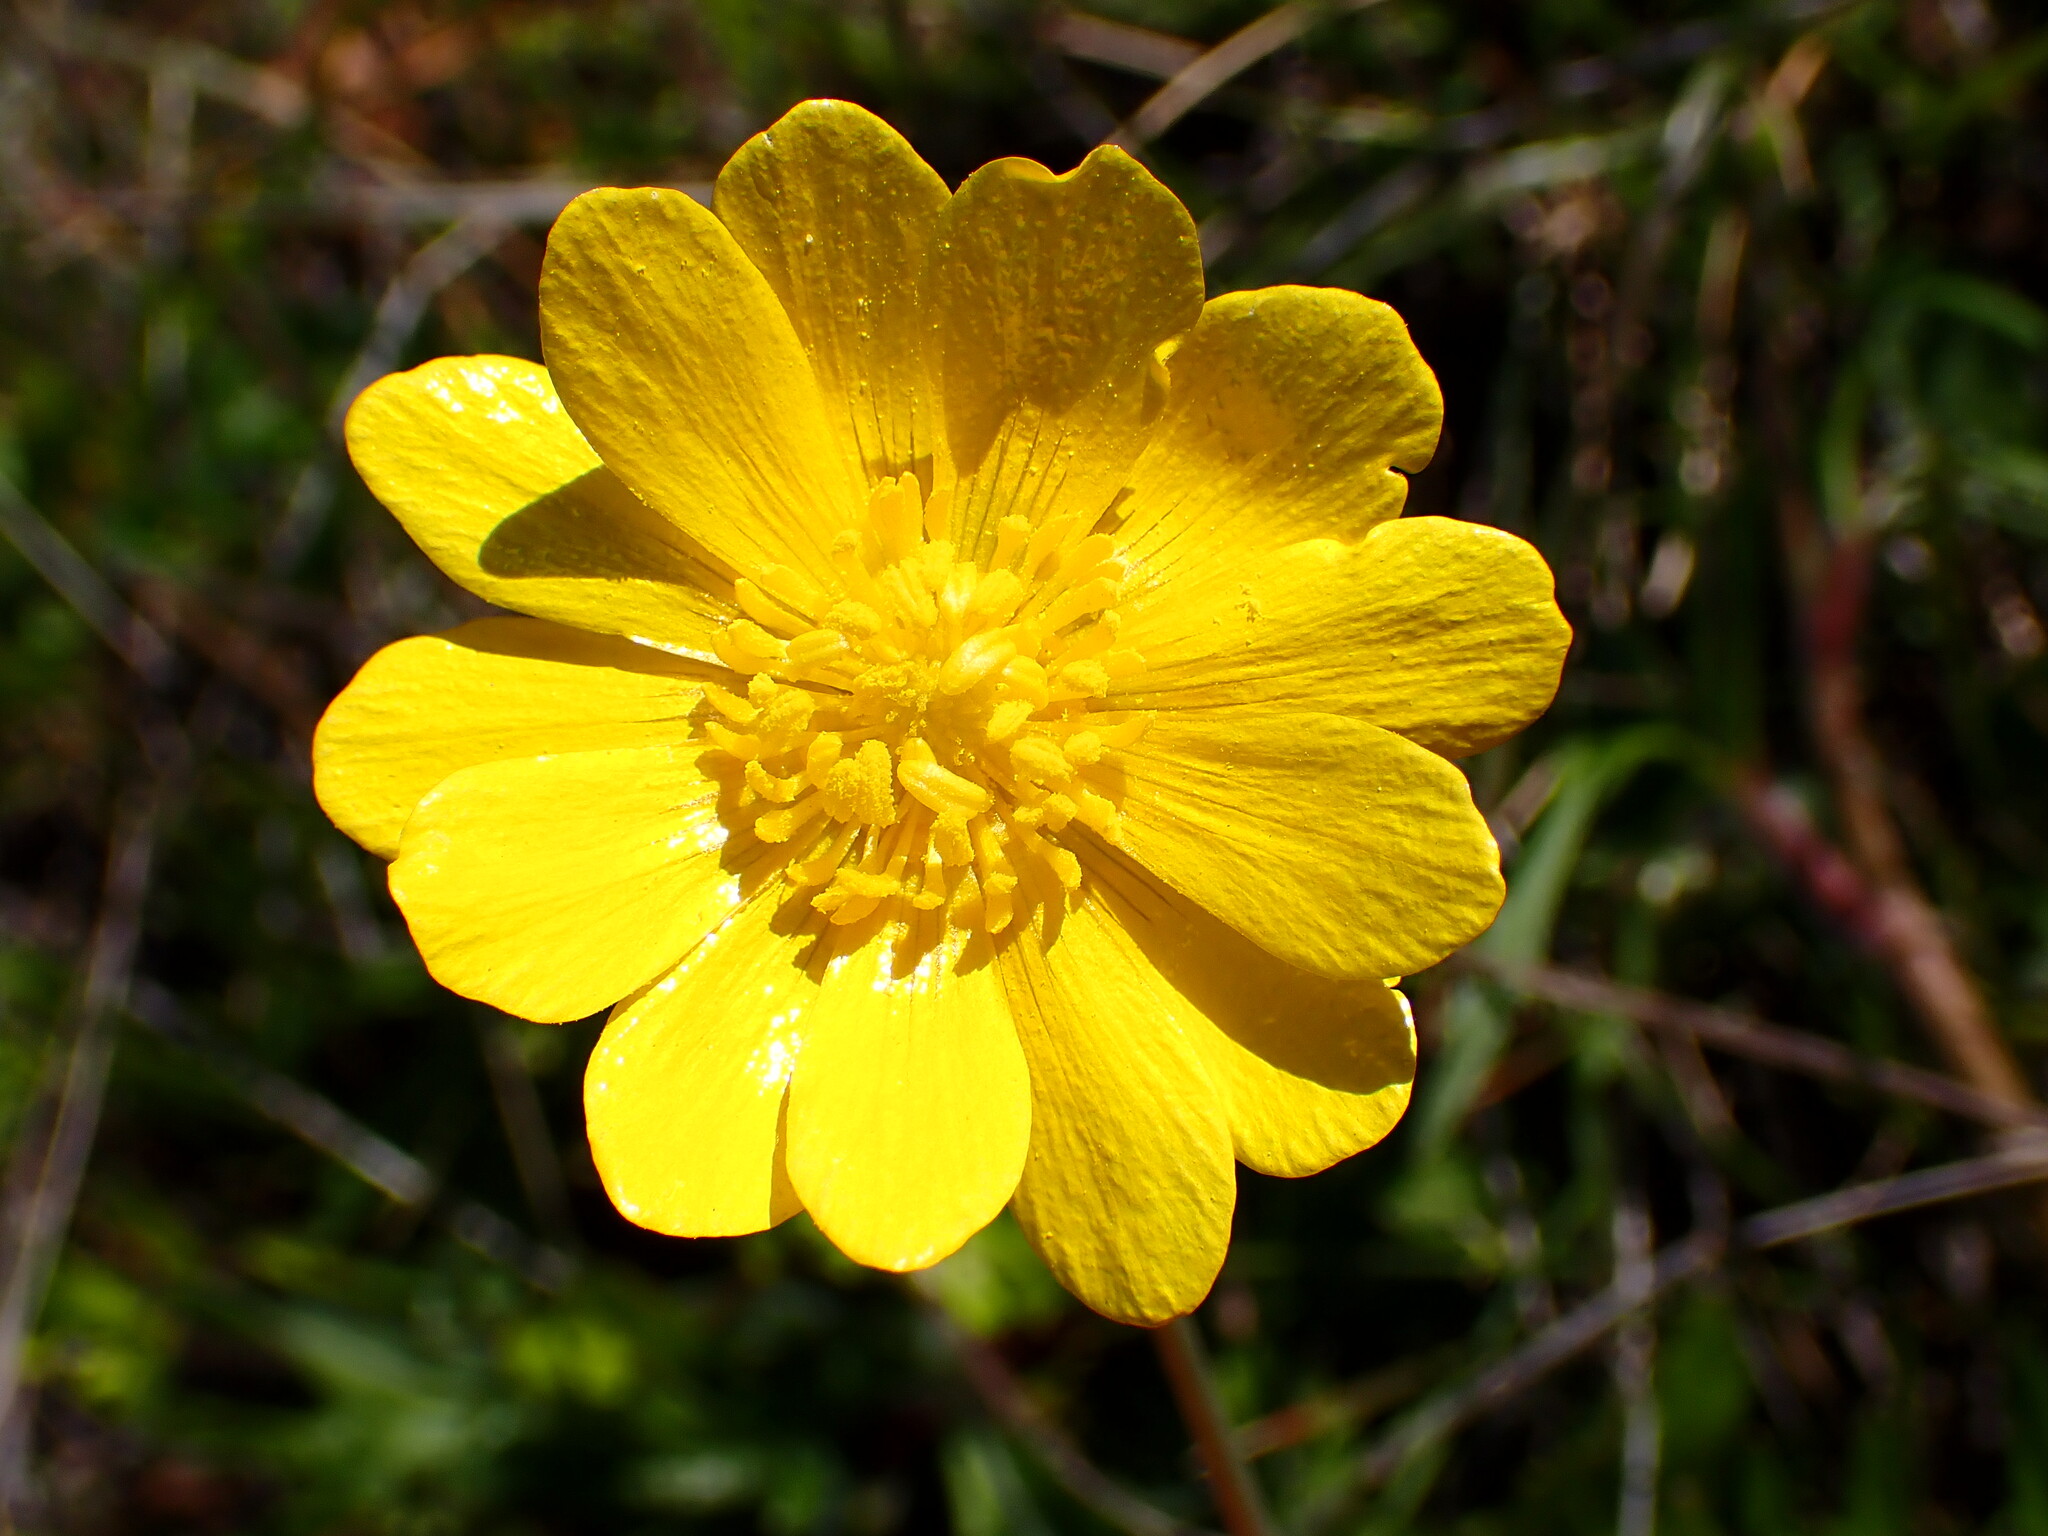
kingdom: Plantae
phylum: Tracheophyta
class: Magnoliopsida
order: Ranunculales
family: Ranunculaceae
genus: Ranunculus
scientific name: Ranunculus californicus
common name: California buttercup
